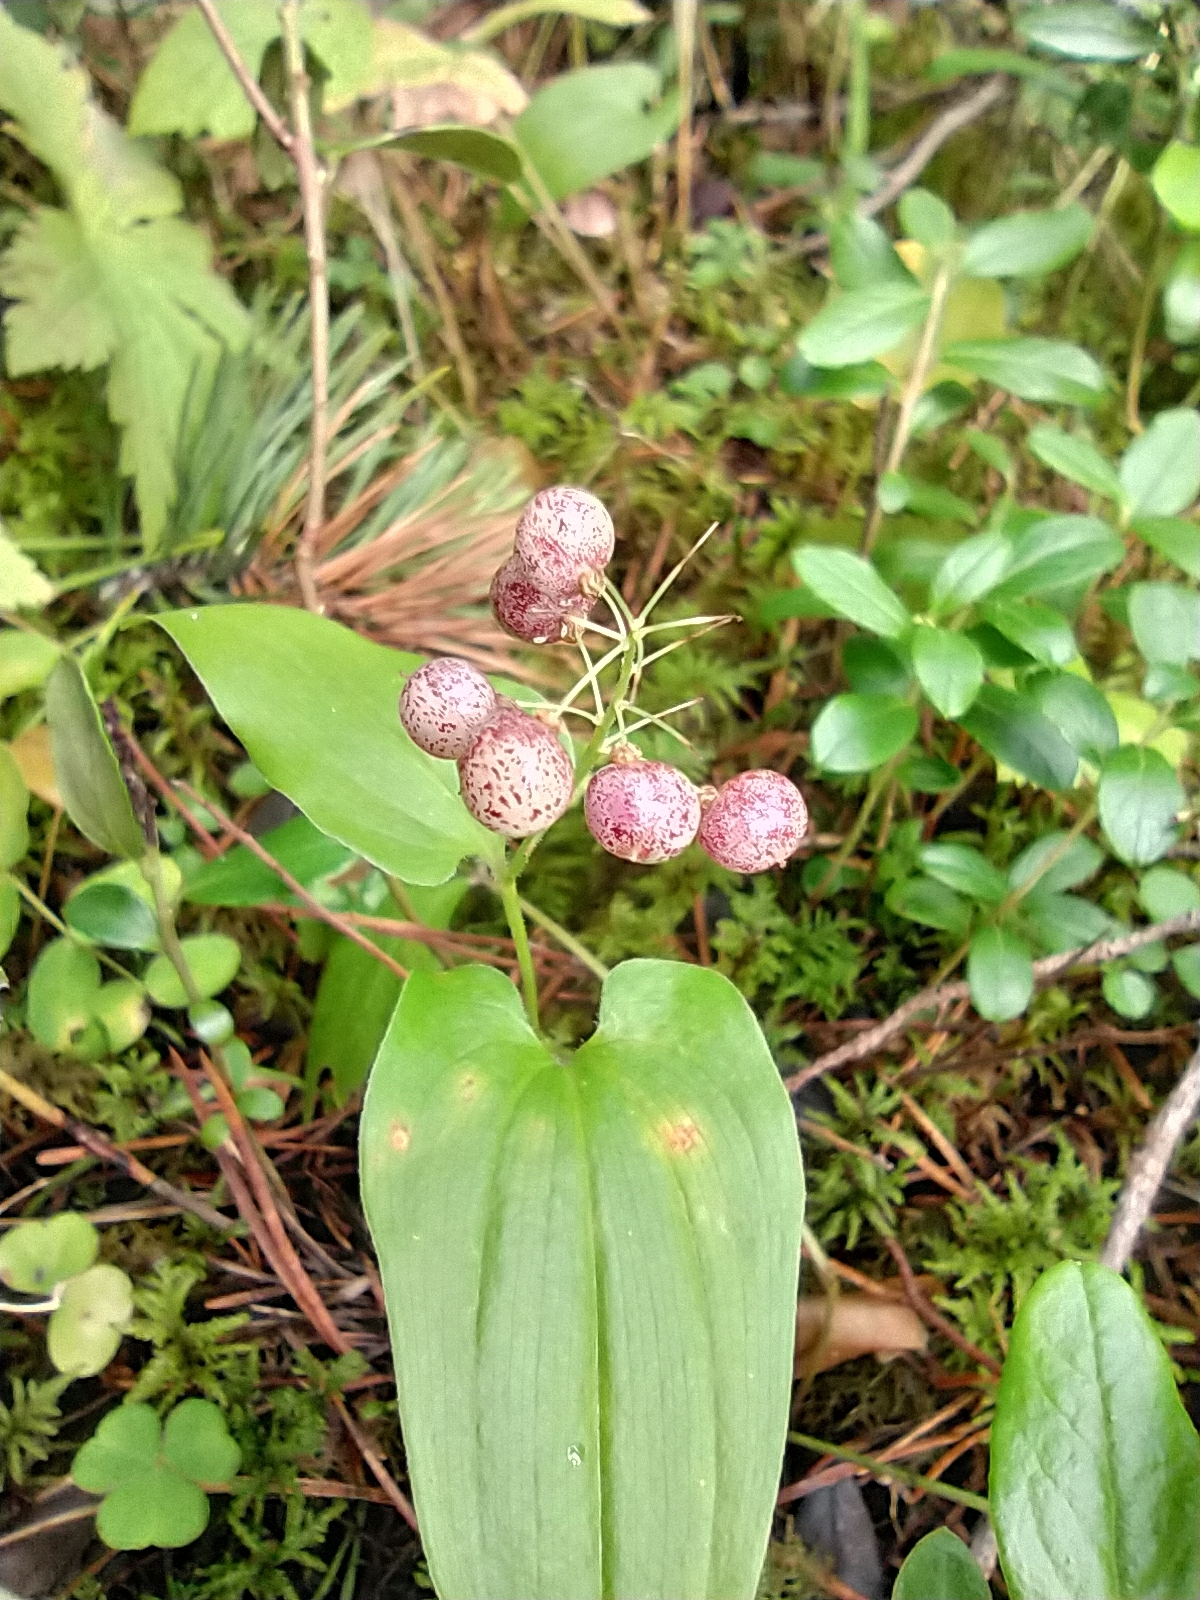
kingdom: Plantae
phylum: Tracheophyta
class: Liliopsida
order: Asparagales
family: Asparagaceae
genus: Maianthemum
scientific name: Maianthemum bifolium
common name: May lily
